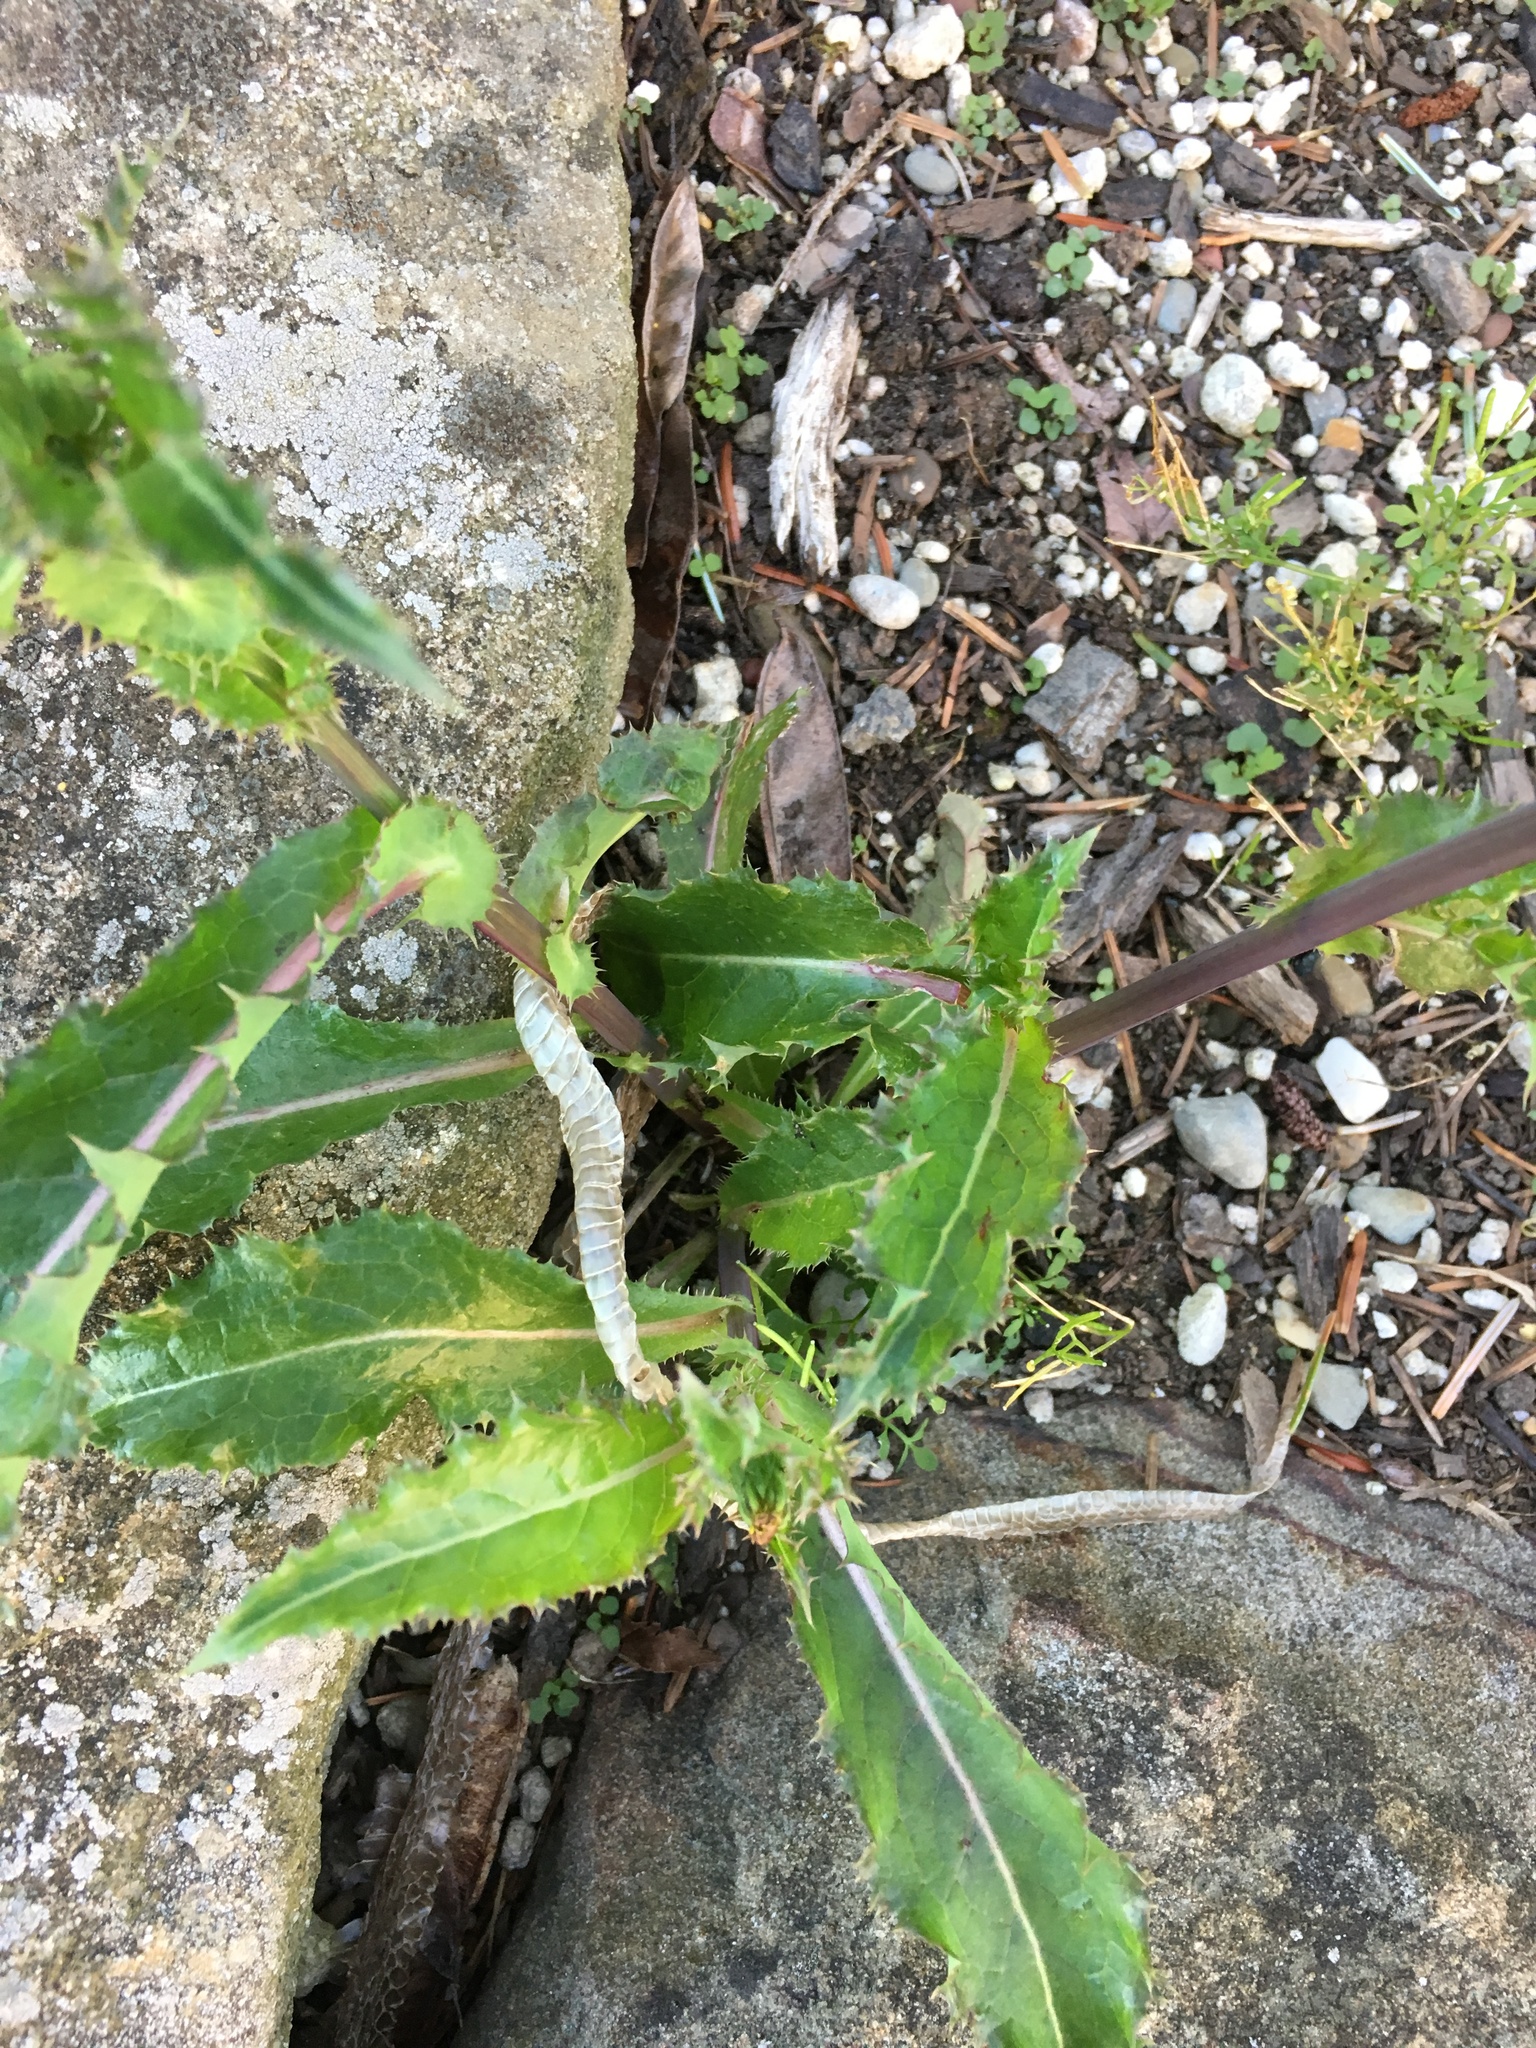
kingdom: Plantae
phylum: Tracheophyta
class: Magnoliopsida
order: Asterales
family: Asteraceae
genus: Sonchus
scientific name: Sonchus asper
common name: Prickly sow-thistle
